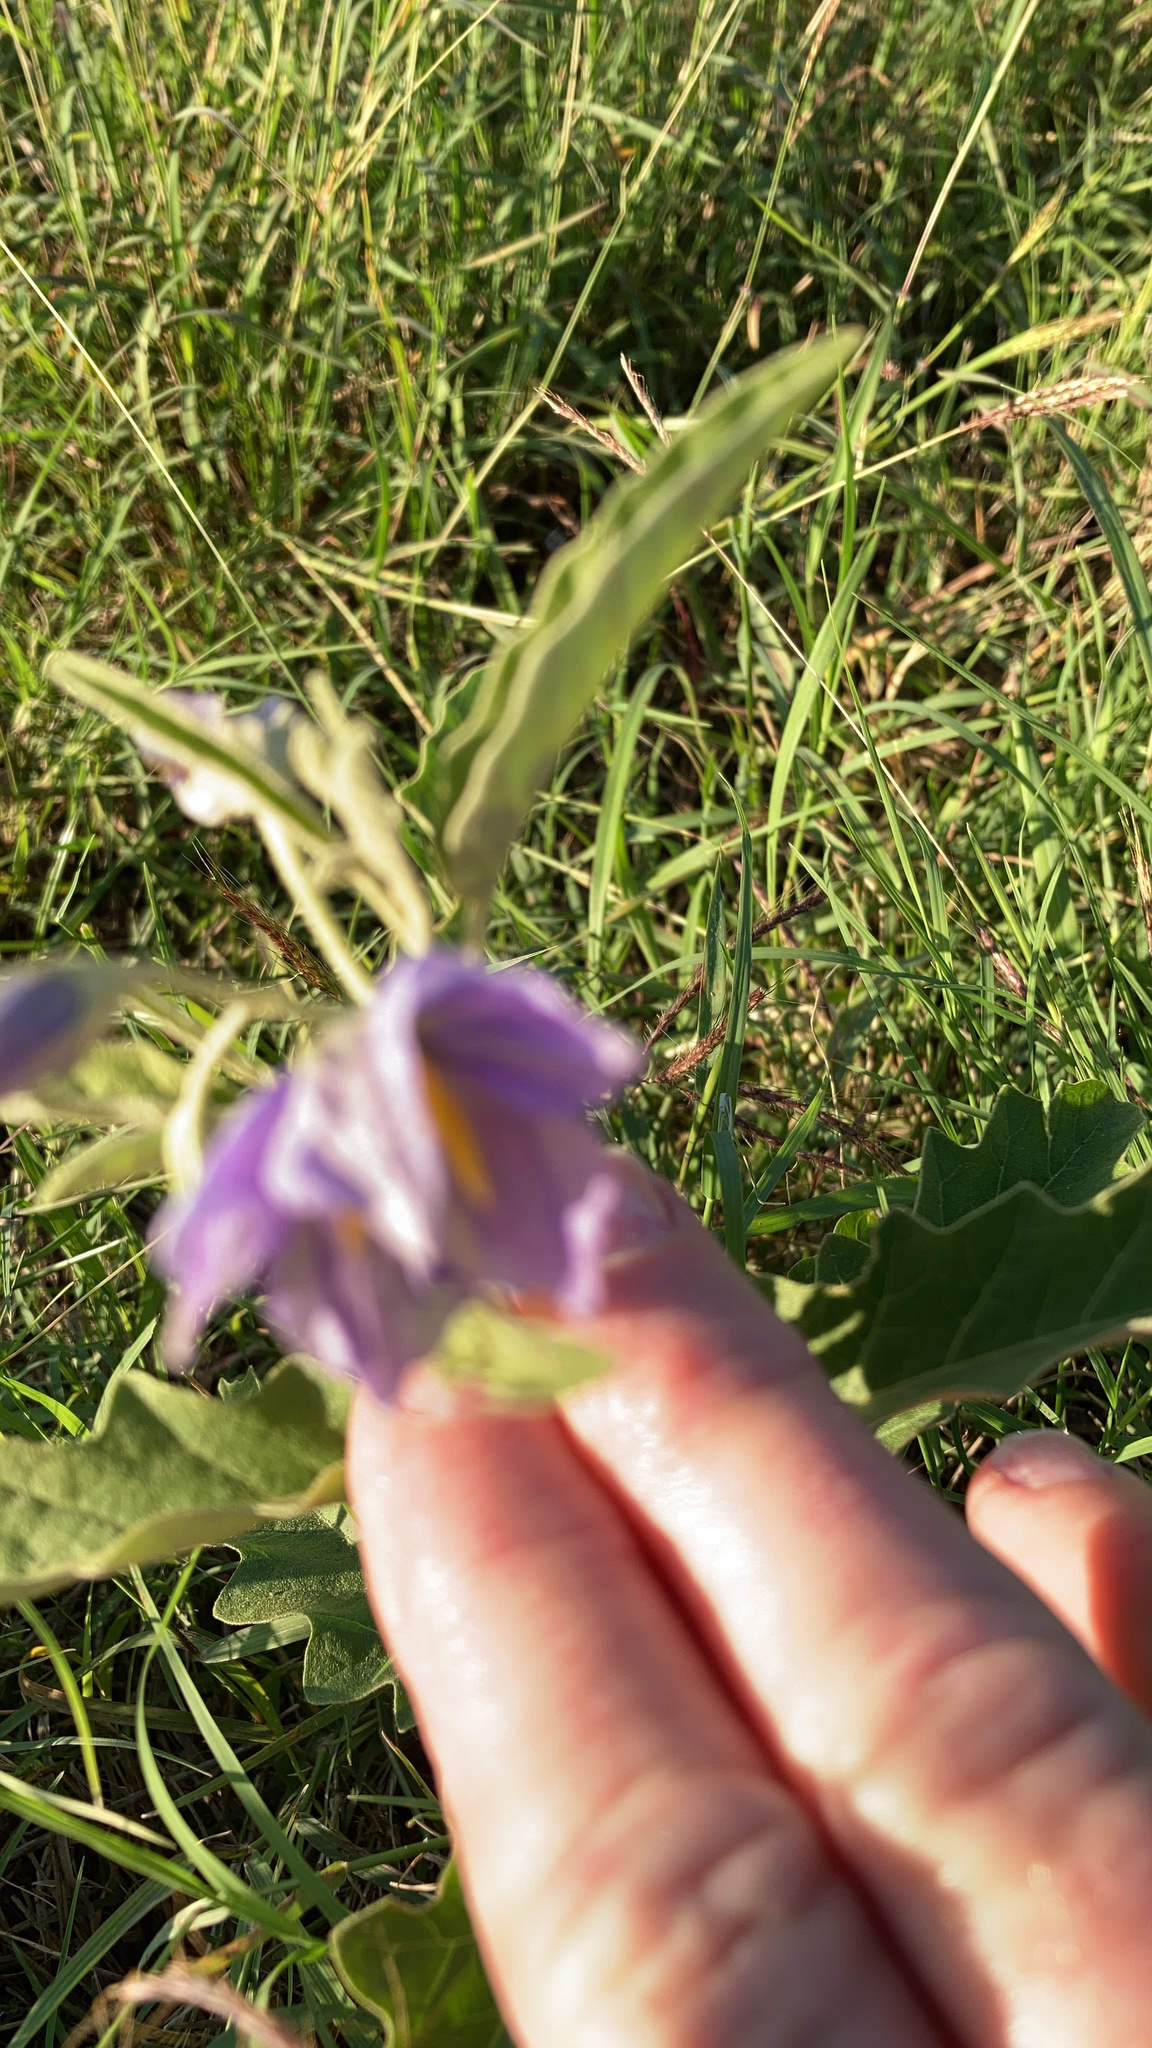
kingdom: Plantae
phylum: Tracheophyta
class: Magnoliopsida
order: Solanales
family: Solanaceae
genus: Solanum
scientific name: Solanum elaeagnifolium
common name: Silverleaf nightshade
